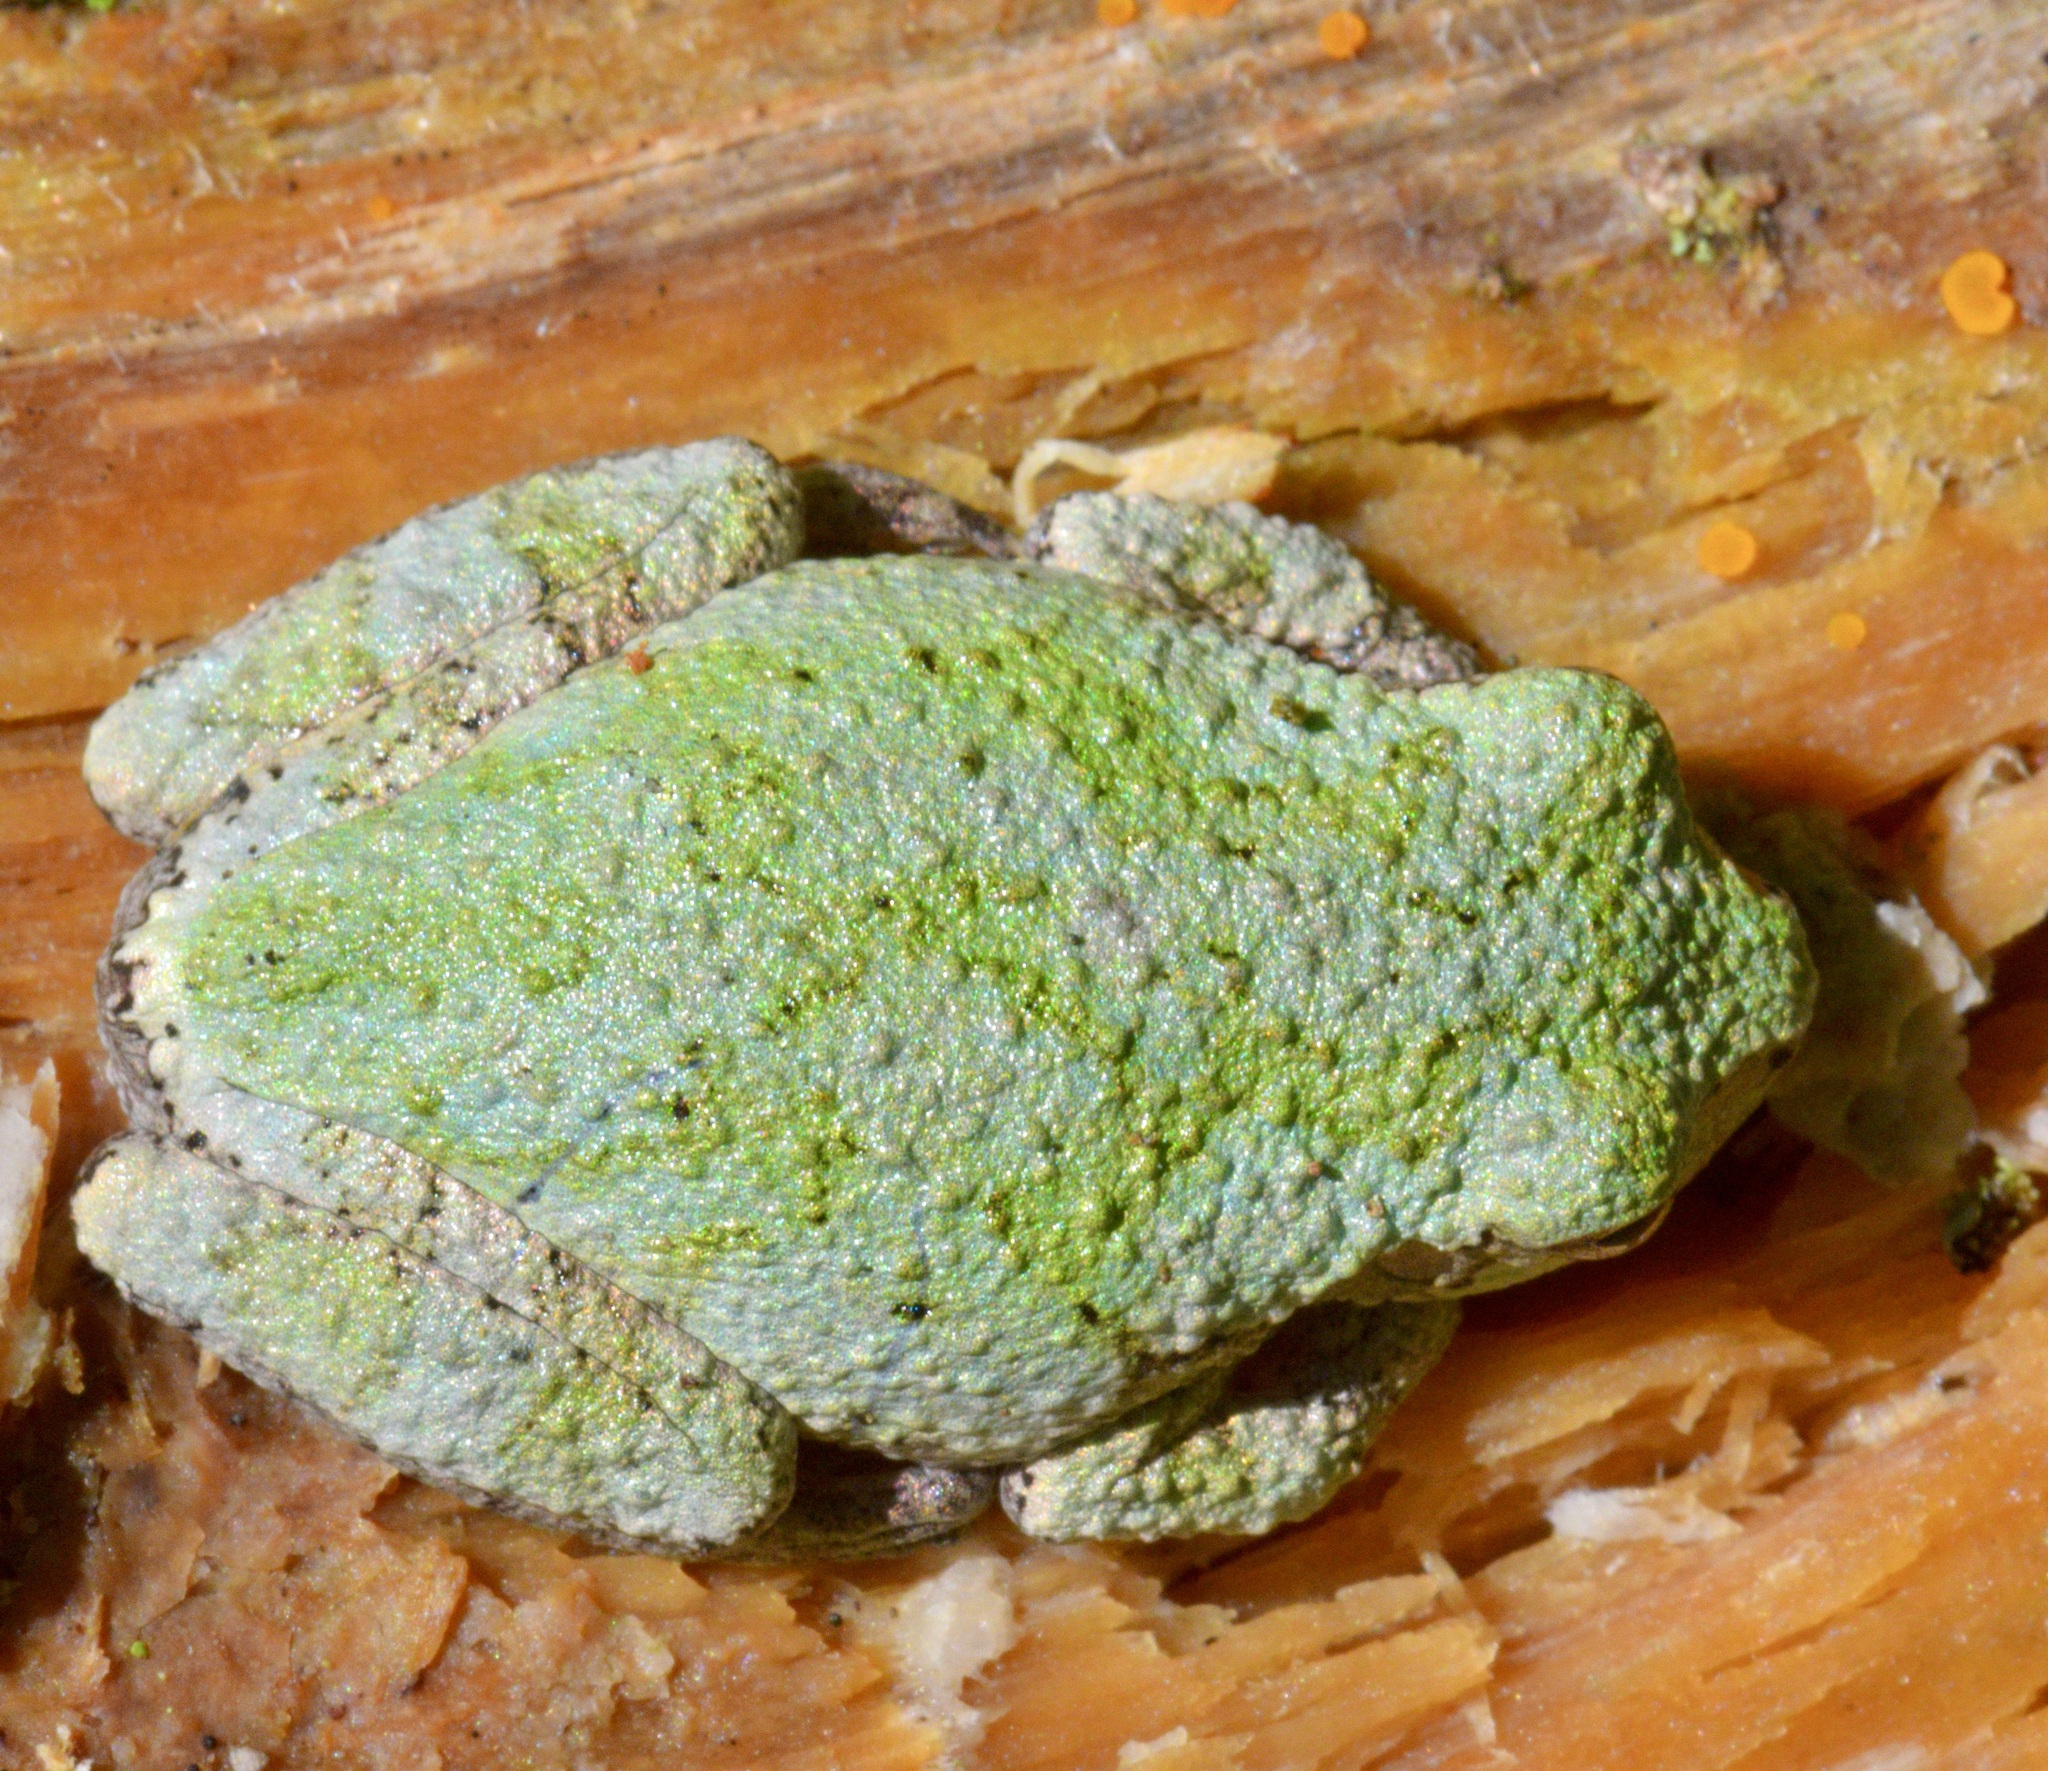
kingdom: Animalia
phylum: Chordata
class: Amphibia
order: Anura
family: Hylidae
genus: Dryophytes
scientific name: Dryophytes versicolor
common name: Gray treefrog
